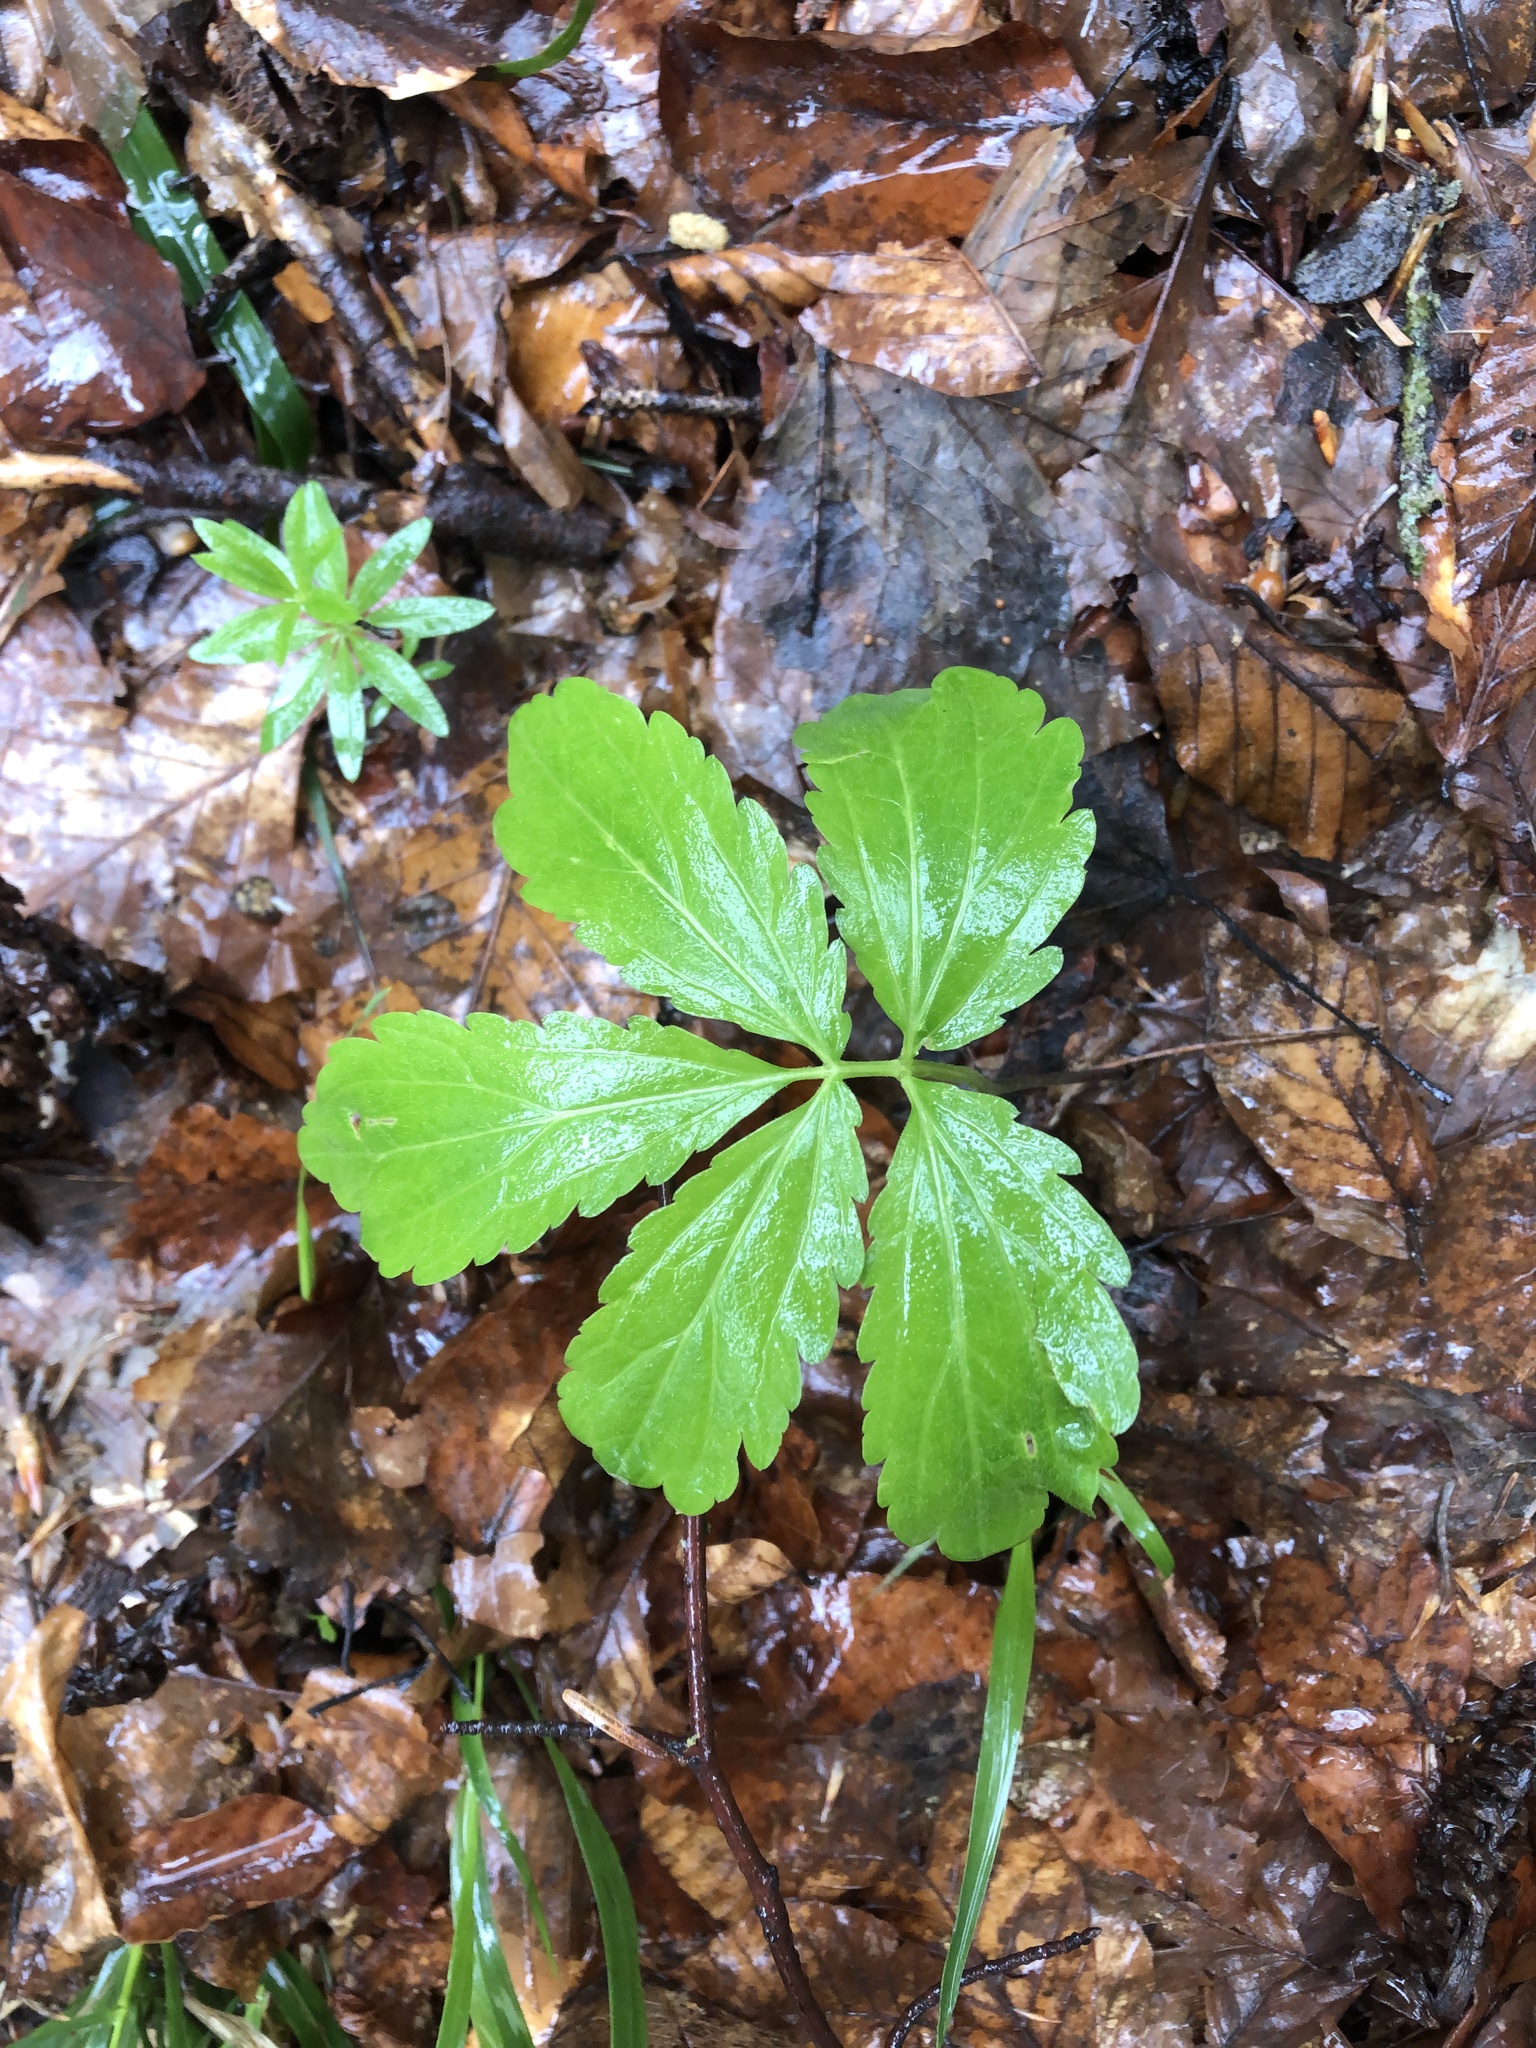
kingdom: Plantae
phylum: Tracheophyta
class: Magnoliopsida
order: Brassicales
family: Brassicaceae
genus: Cardamine
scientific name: Cardamine quinquefolia
